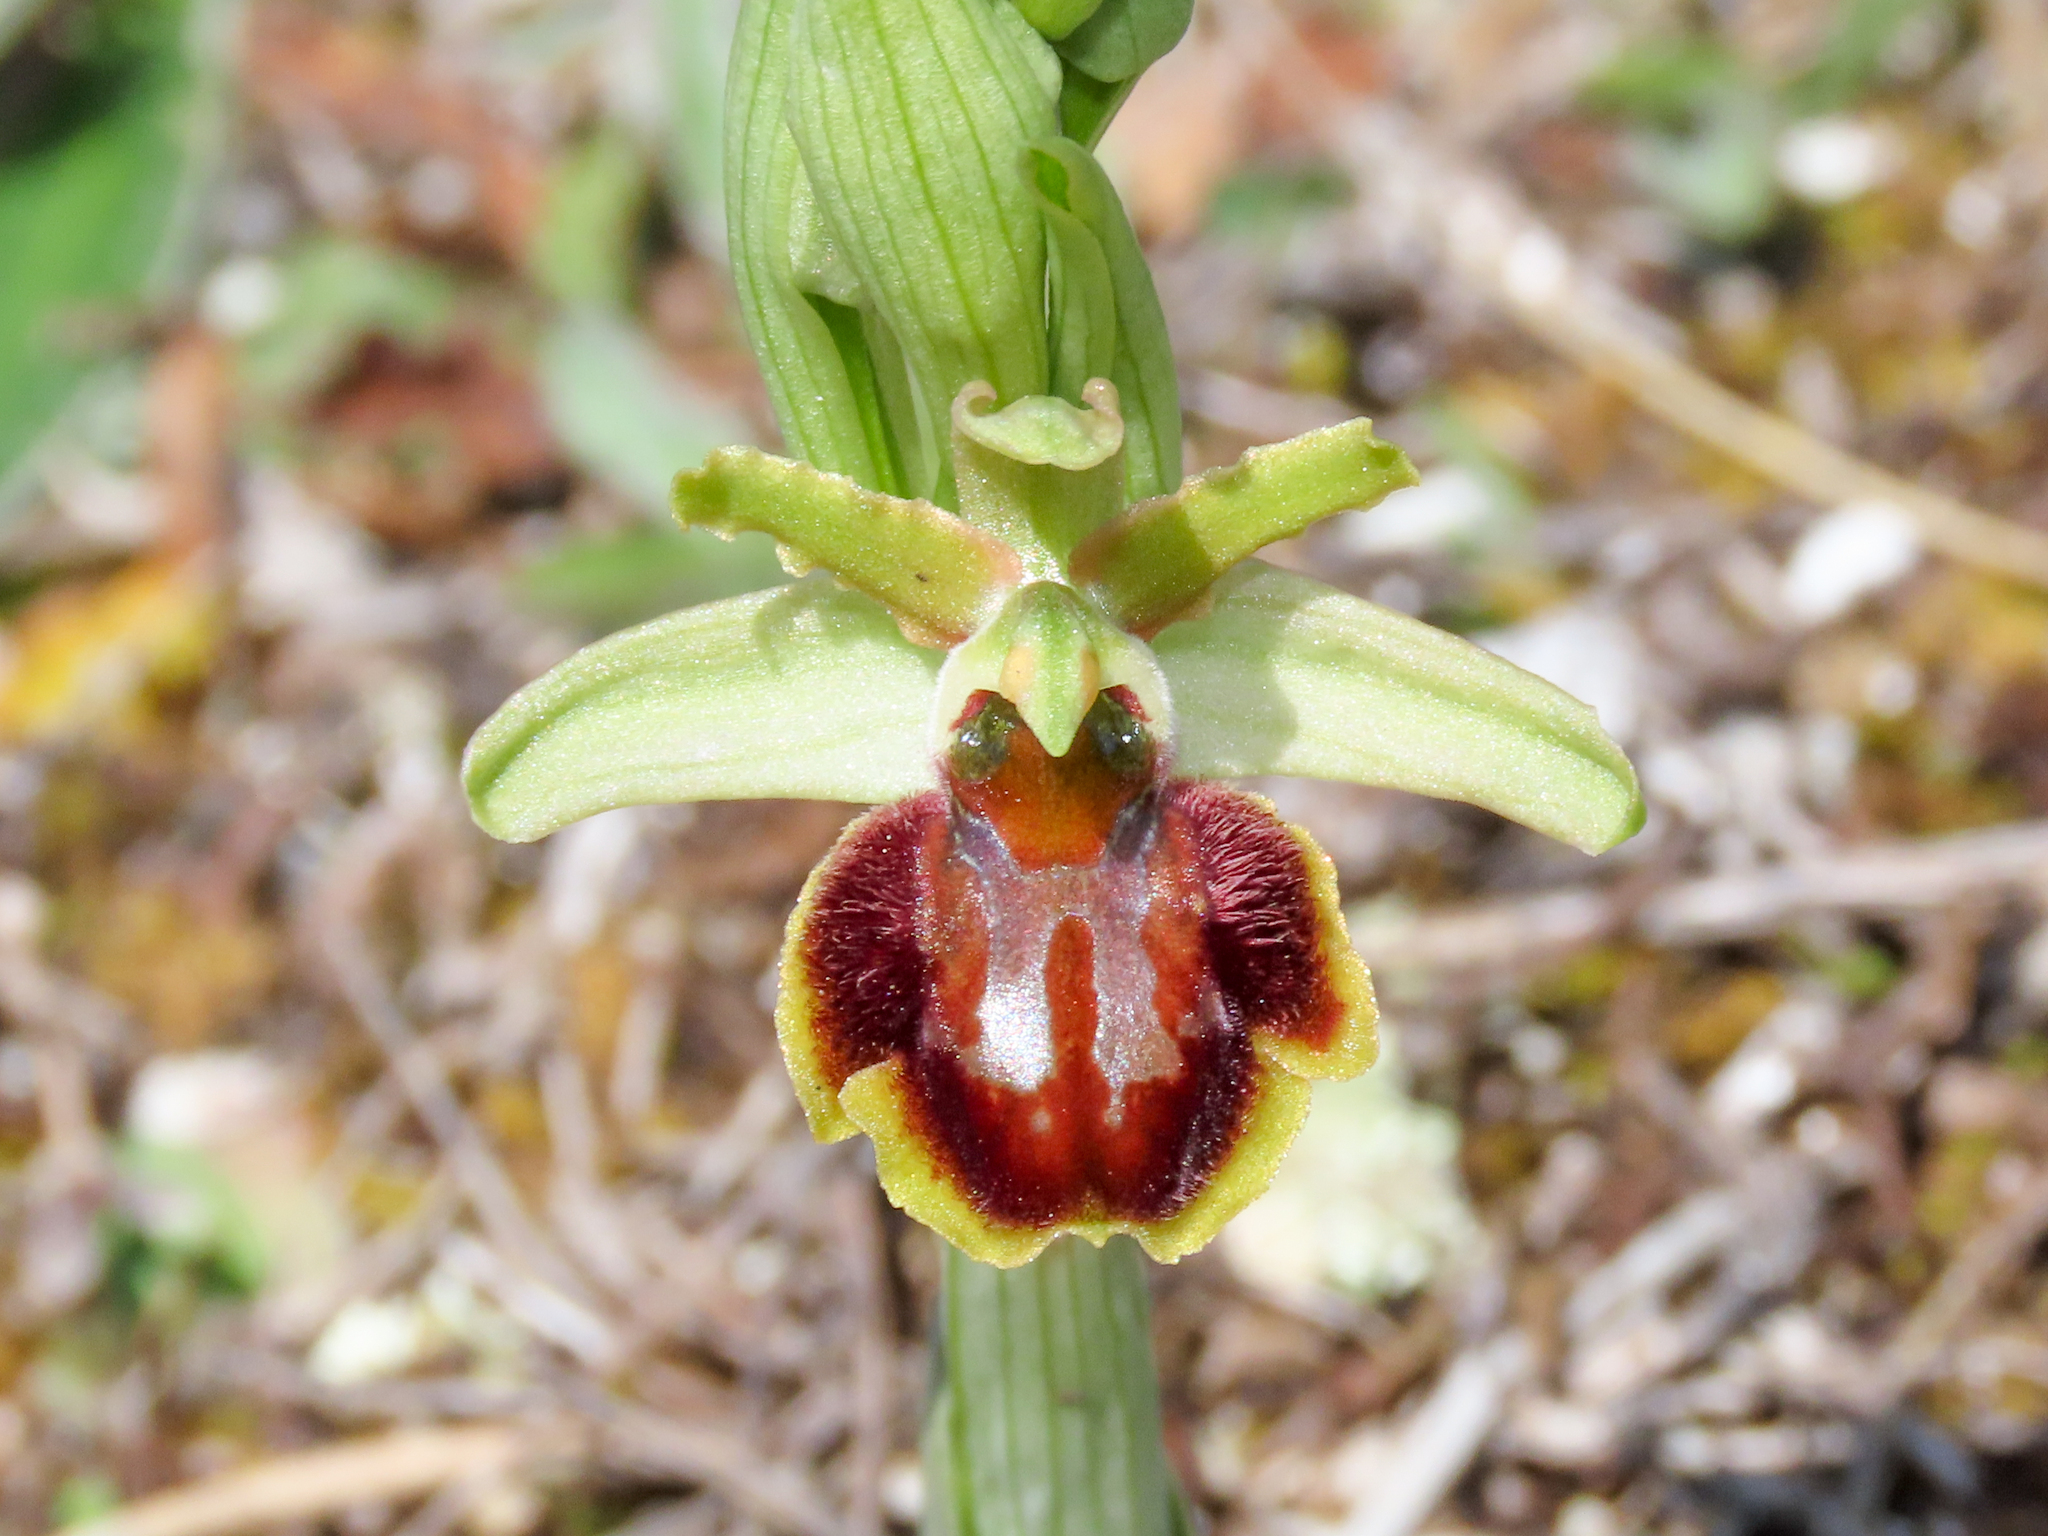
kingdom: Plantae
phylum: Tracheophyta
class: Liliopsida
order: Asparagales
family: Orchidaceae
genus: Ophrys
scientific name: Ophrys sphegodes
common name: Early spider-orchid
